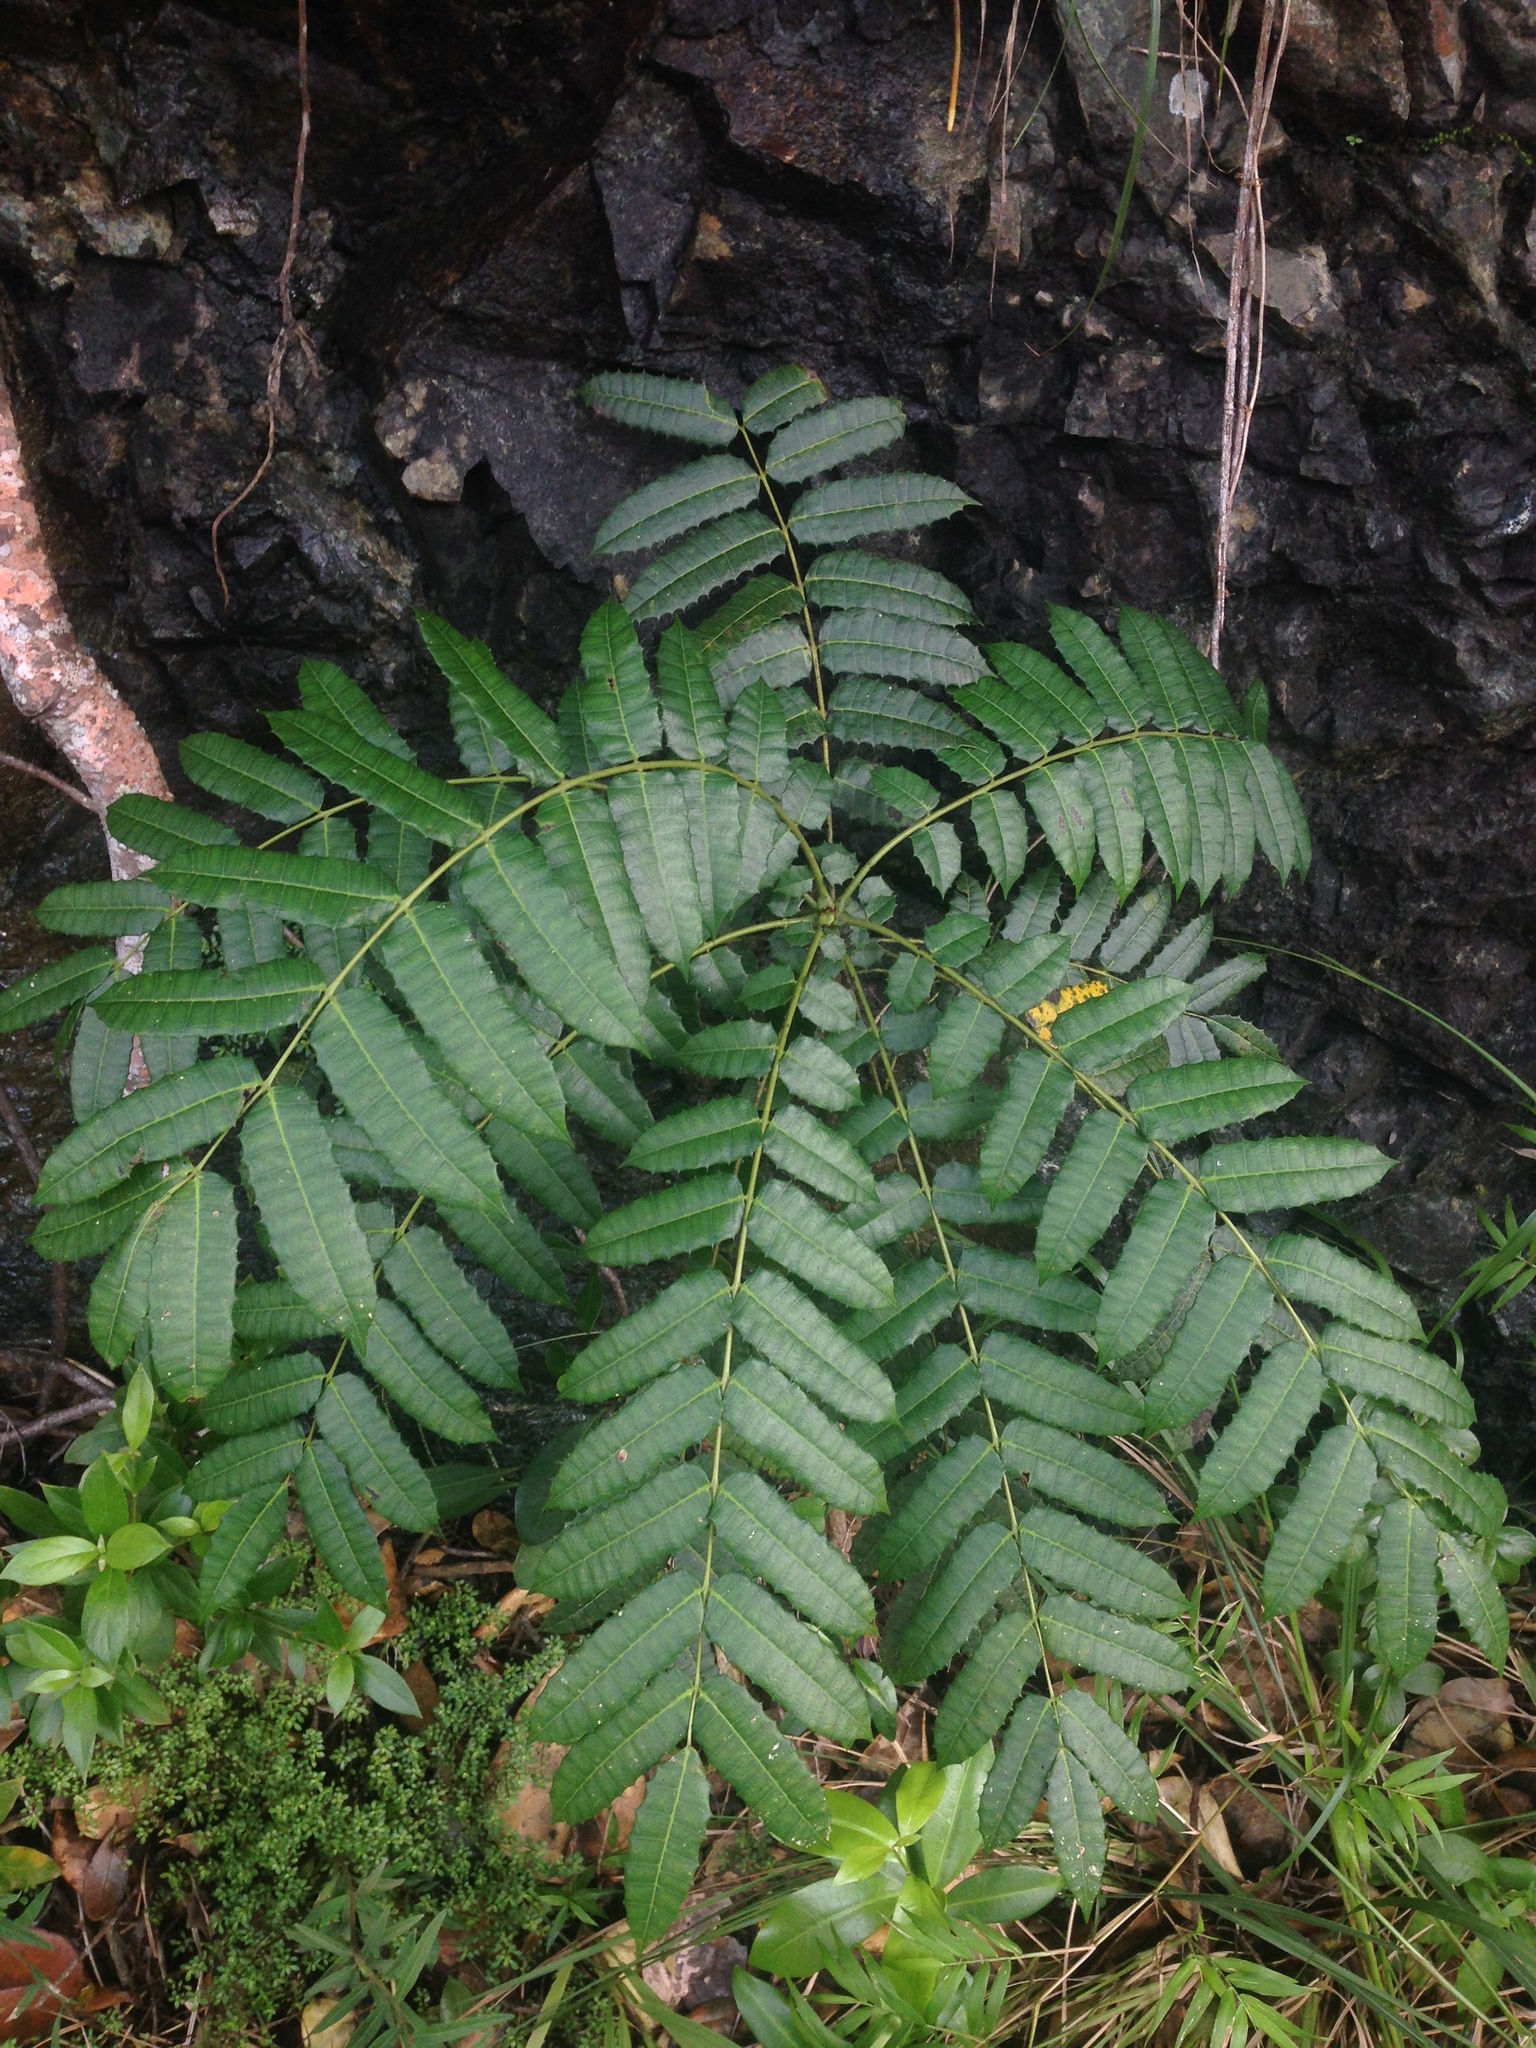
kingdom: Plantae
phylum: Tracheophyta
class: Magnoliopsida
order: Sapindales
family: Anacardiaceae
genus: Comocladia
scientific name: Comocladia glabra
